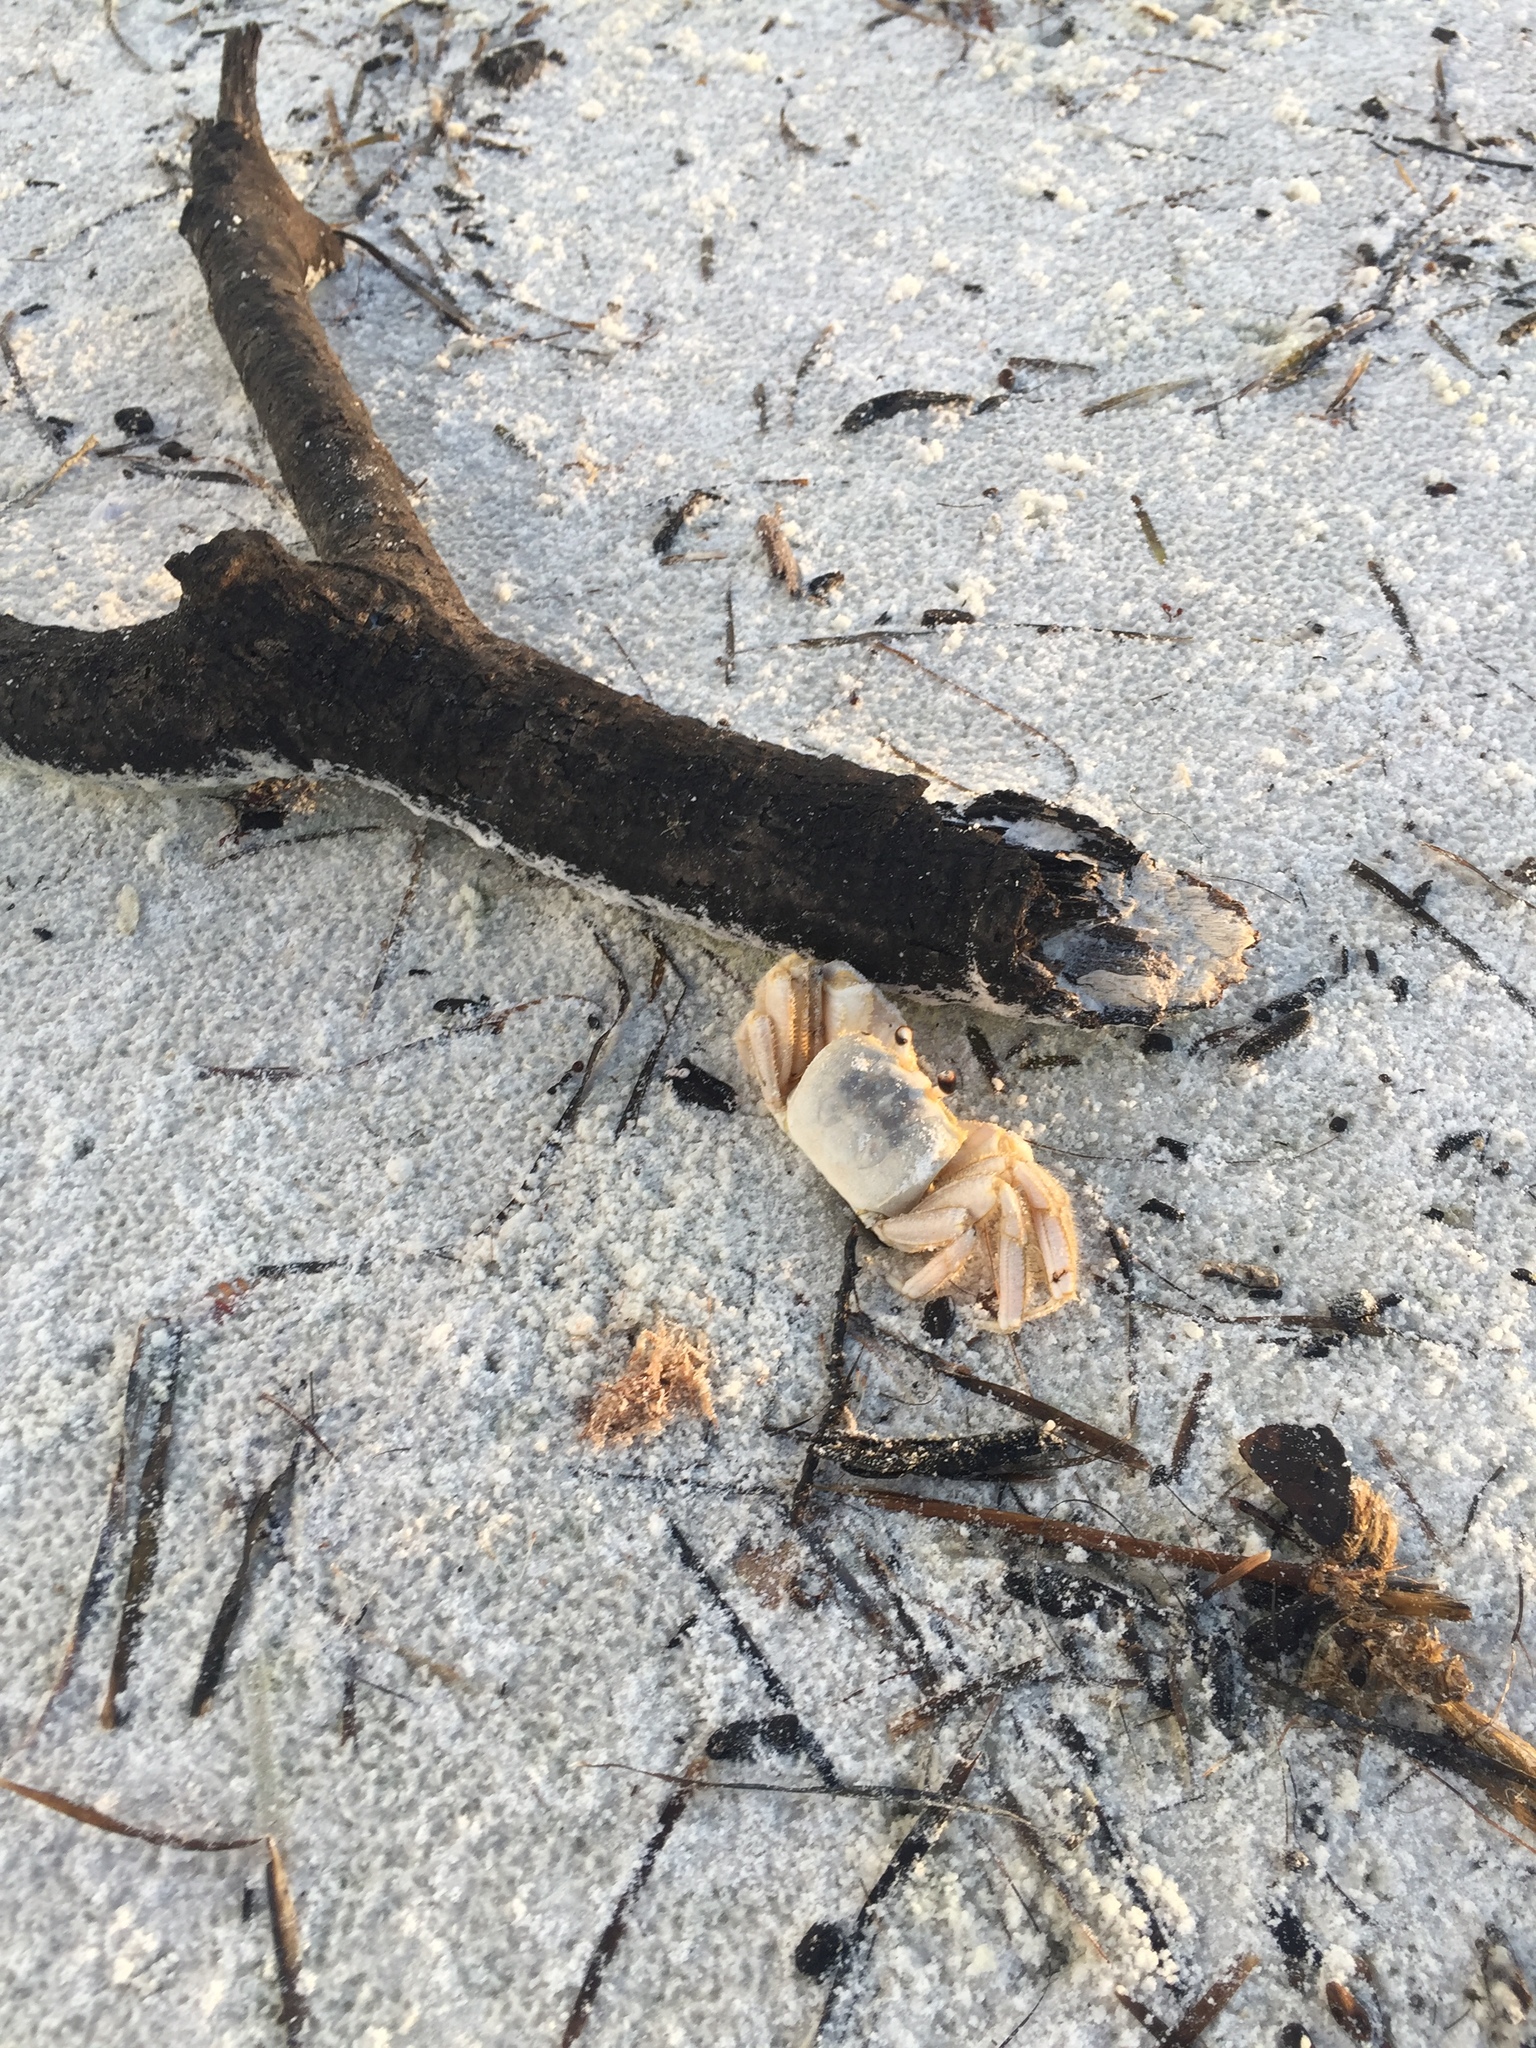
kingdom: Animalia
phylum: Arthropoda
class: Malacostraca
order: Decapoda
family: Ocypodidae
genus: Ocypode
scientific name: Ocypode quadrata
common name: Ghost crab
